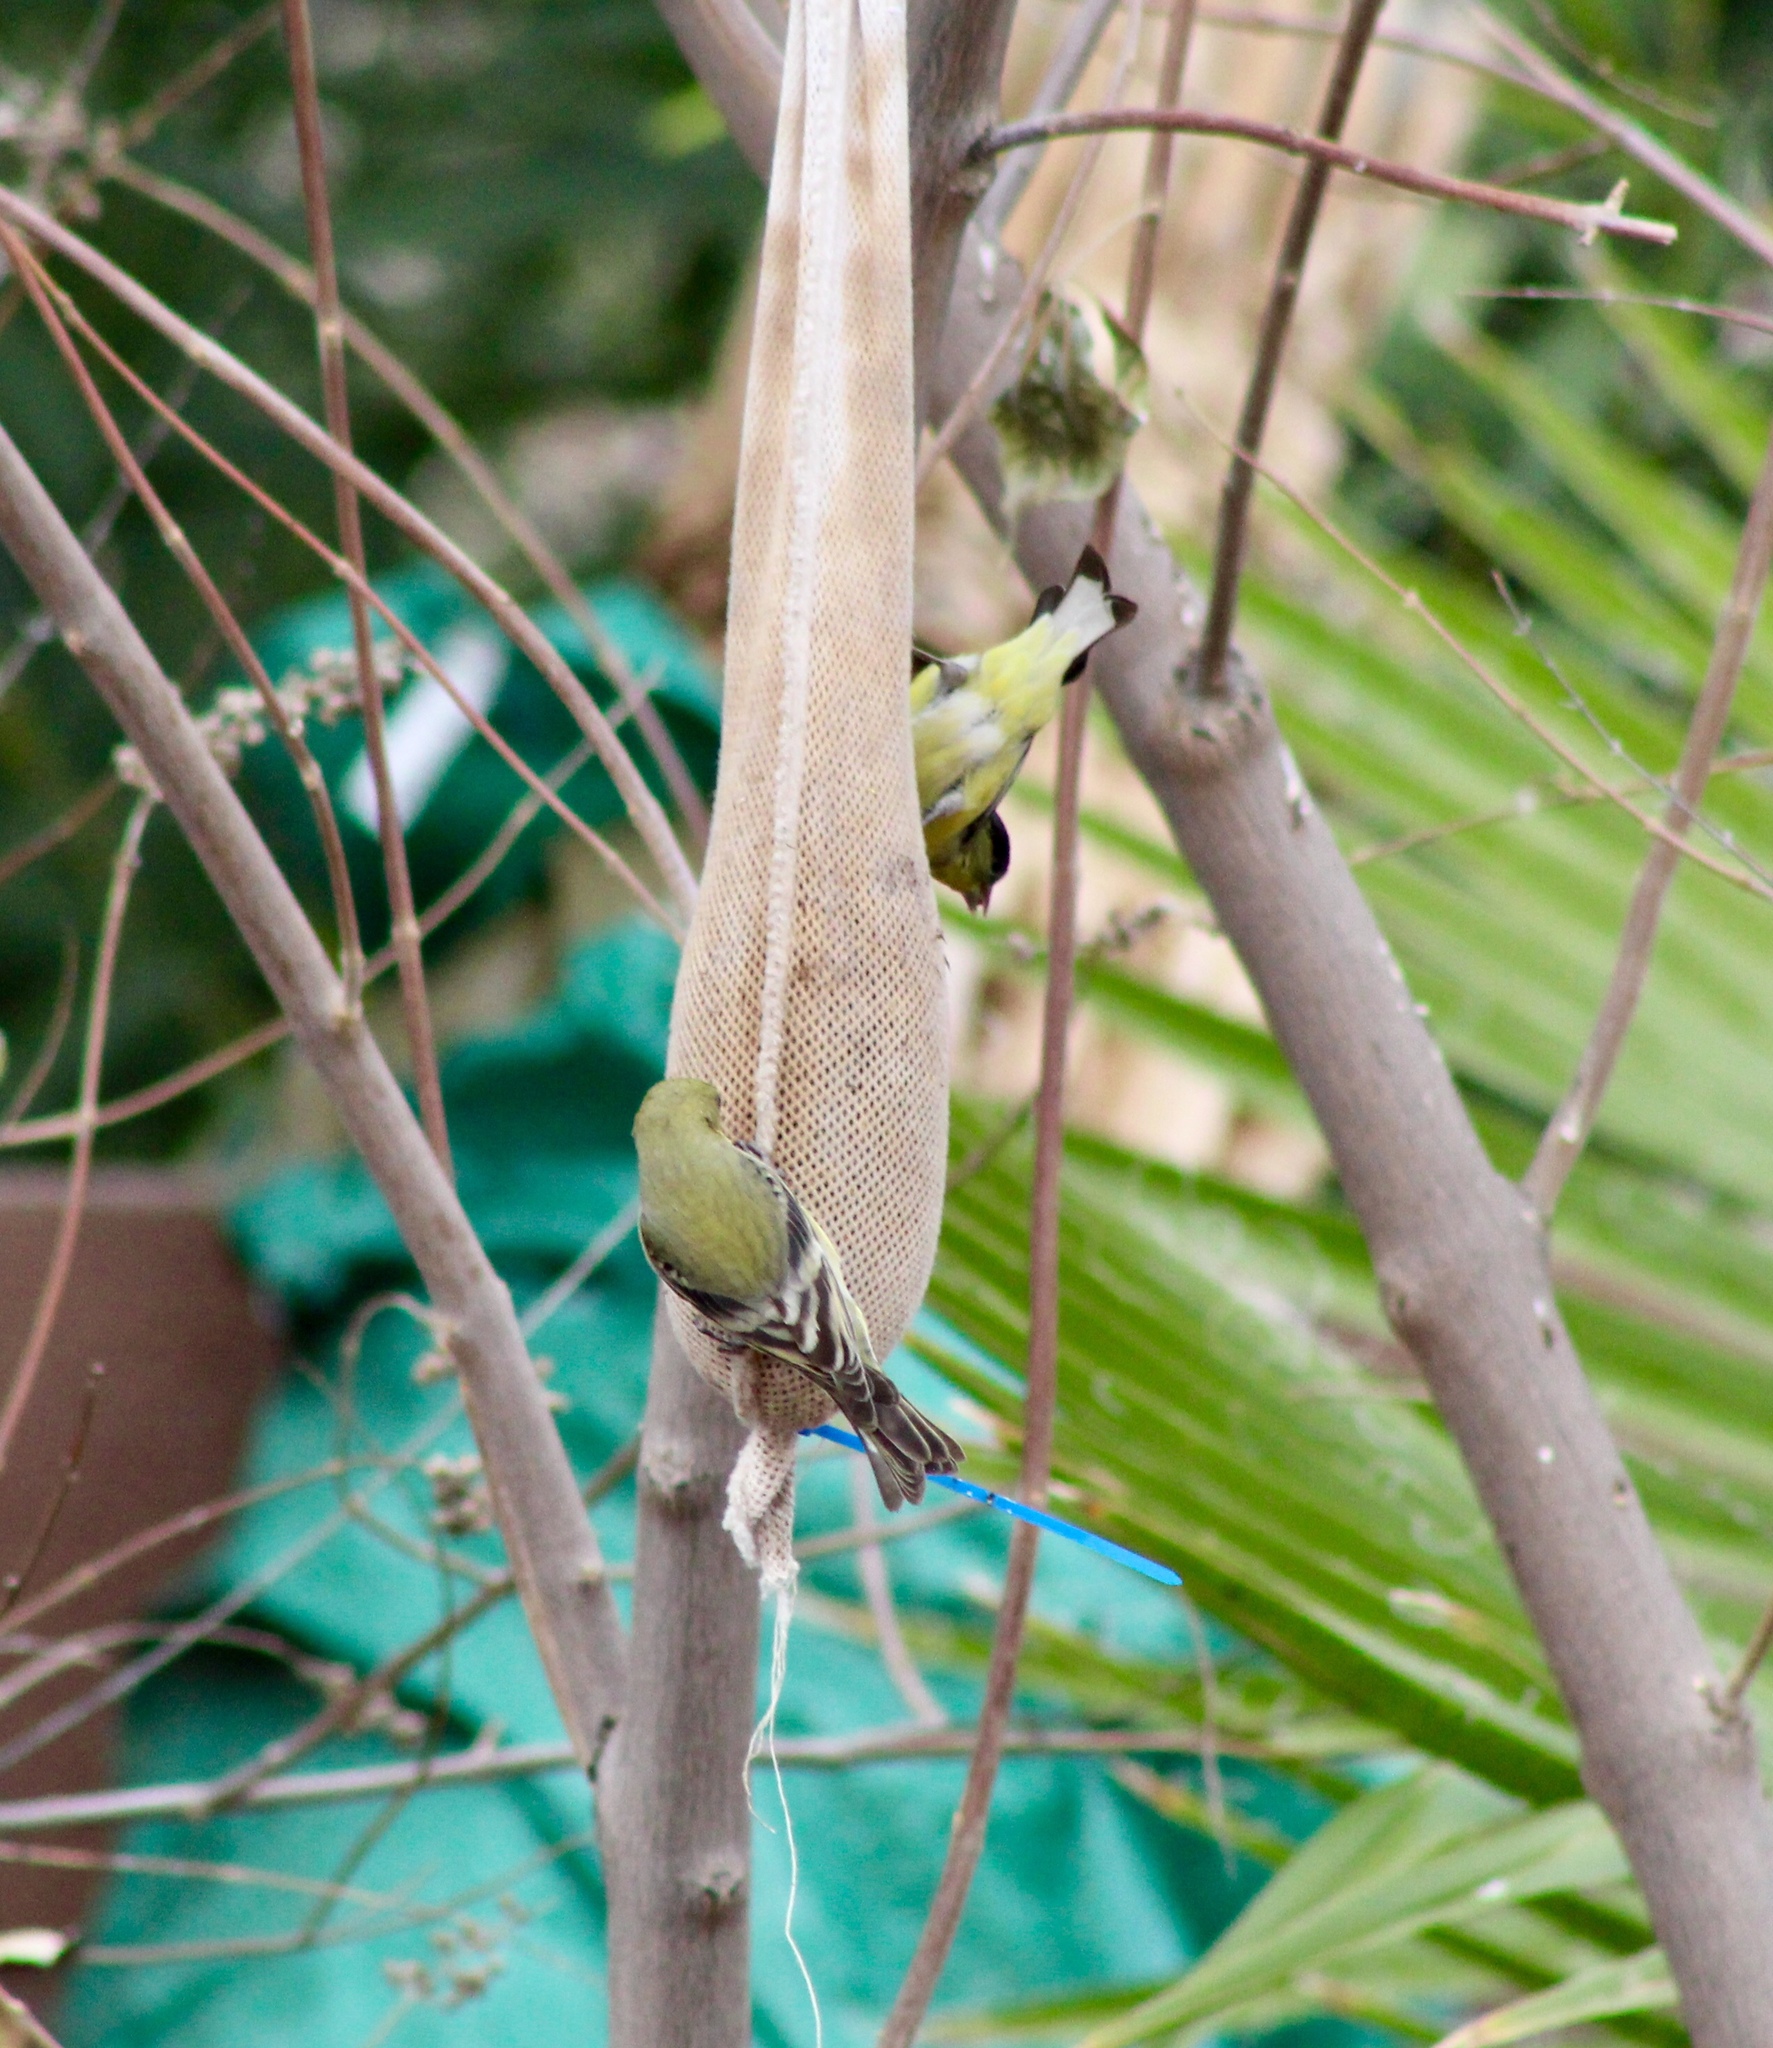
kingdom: Animalia
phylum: Chordata
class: Aves
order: Passeriformes
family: Fringillidae
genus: Spinus
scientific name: Spinus psaltria
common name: Lesser goldfinch
